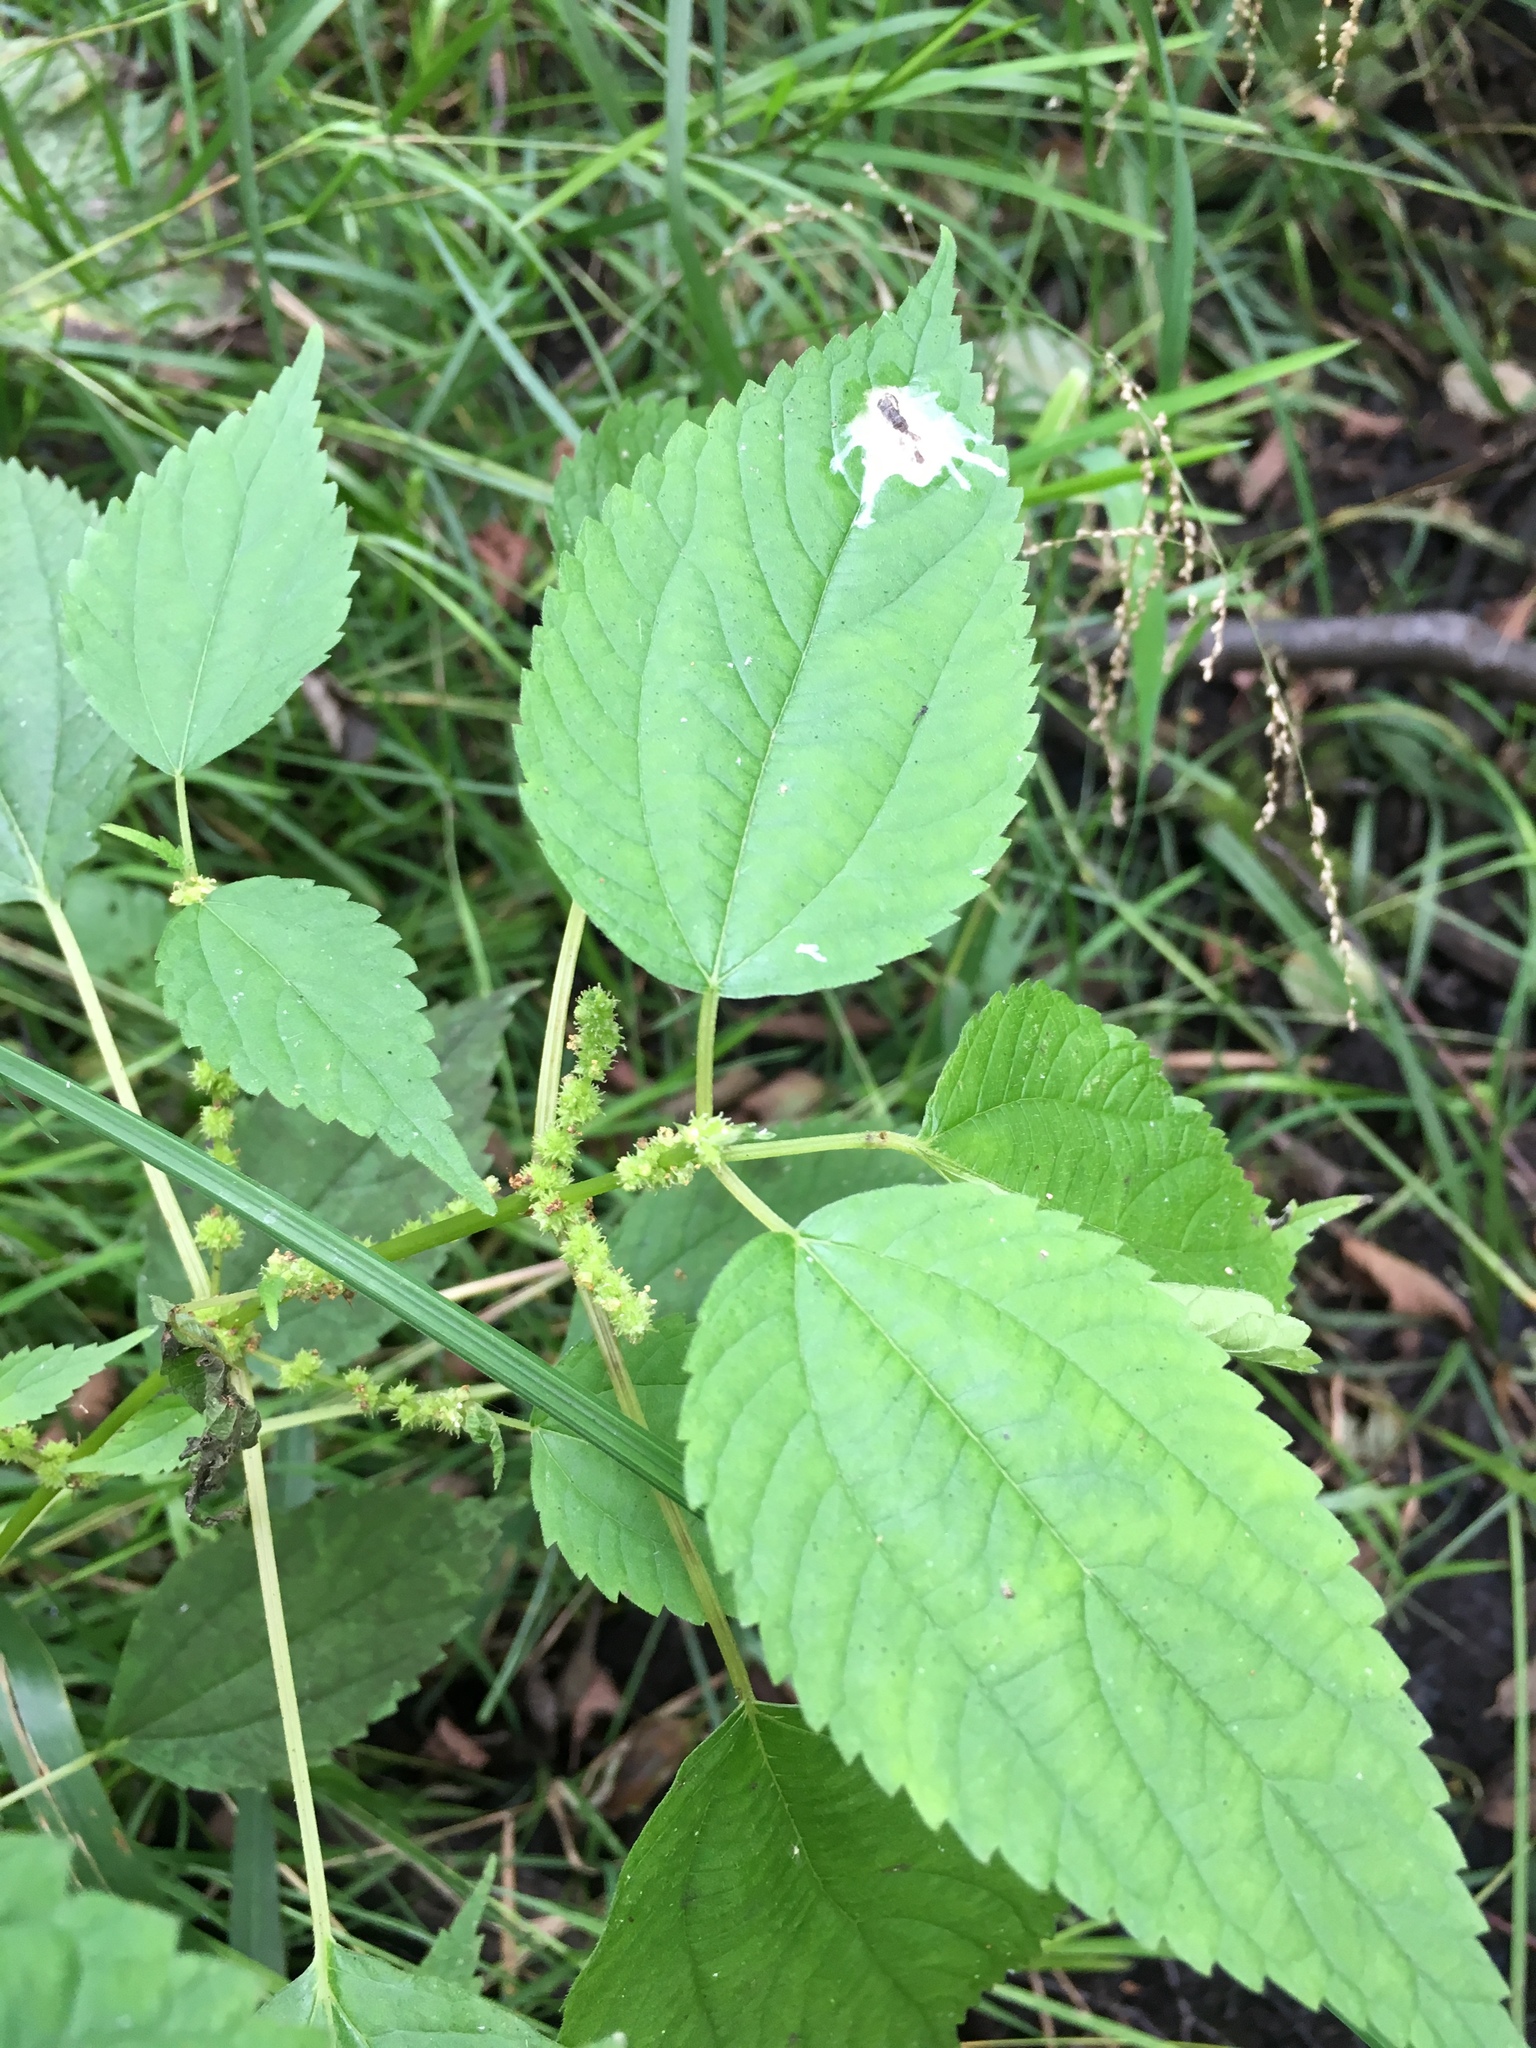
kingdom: Plantae
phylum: Tracheophyta
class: Magnoliopsida
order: Rosales
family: Urticaceae
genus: Boehmeria
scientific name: Boehmeria cylindrica
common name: Bog-hemp
